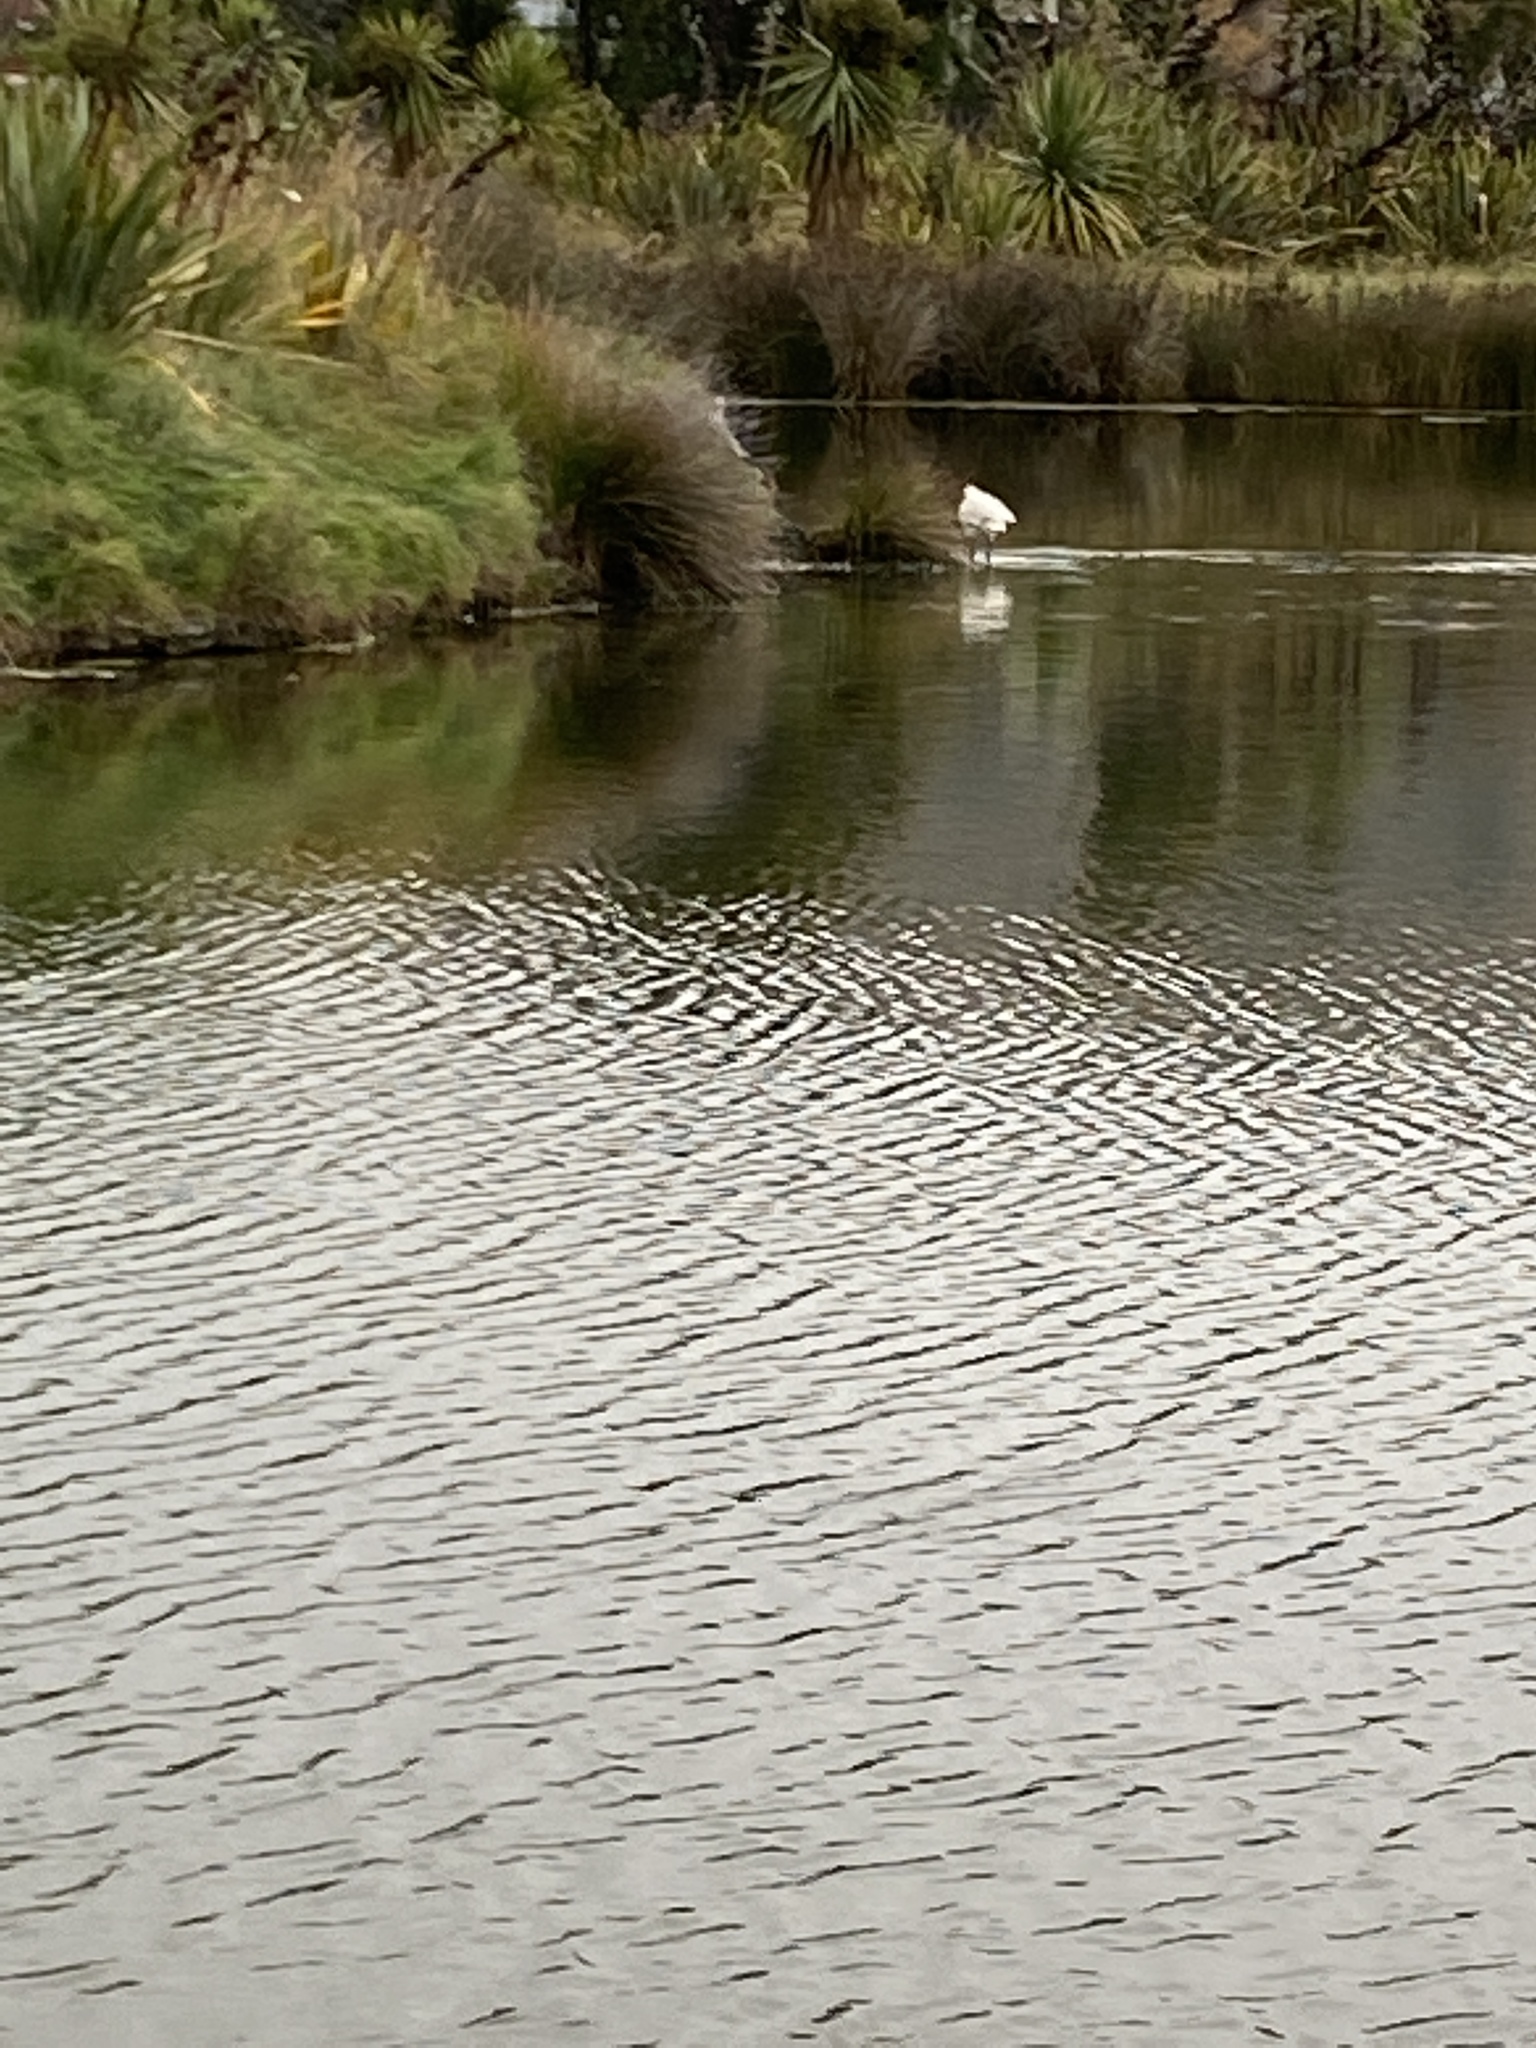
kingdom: Animalia
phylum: Chordata
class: Aves
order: Pelecaniformes
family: Threskiornithidae
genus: Platalea
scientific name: Platalea regia
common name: Royal spoonbill
